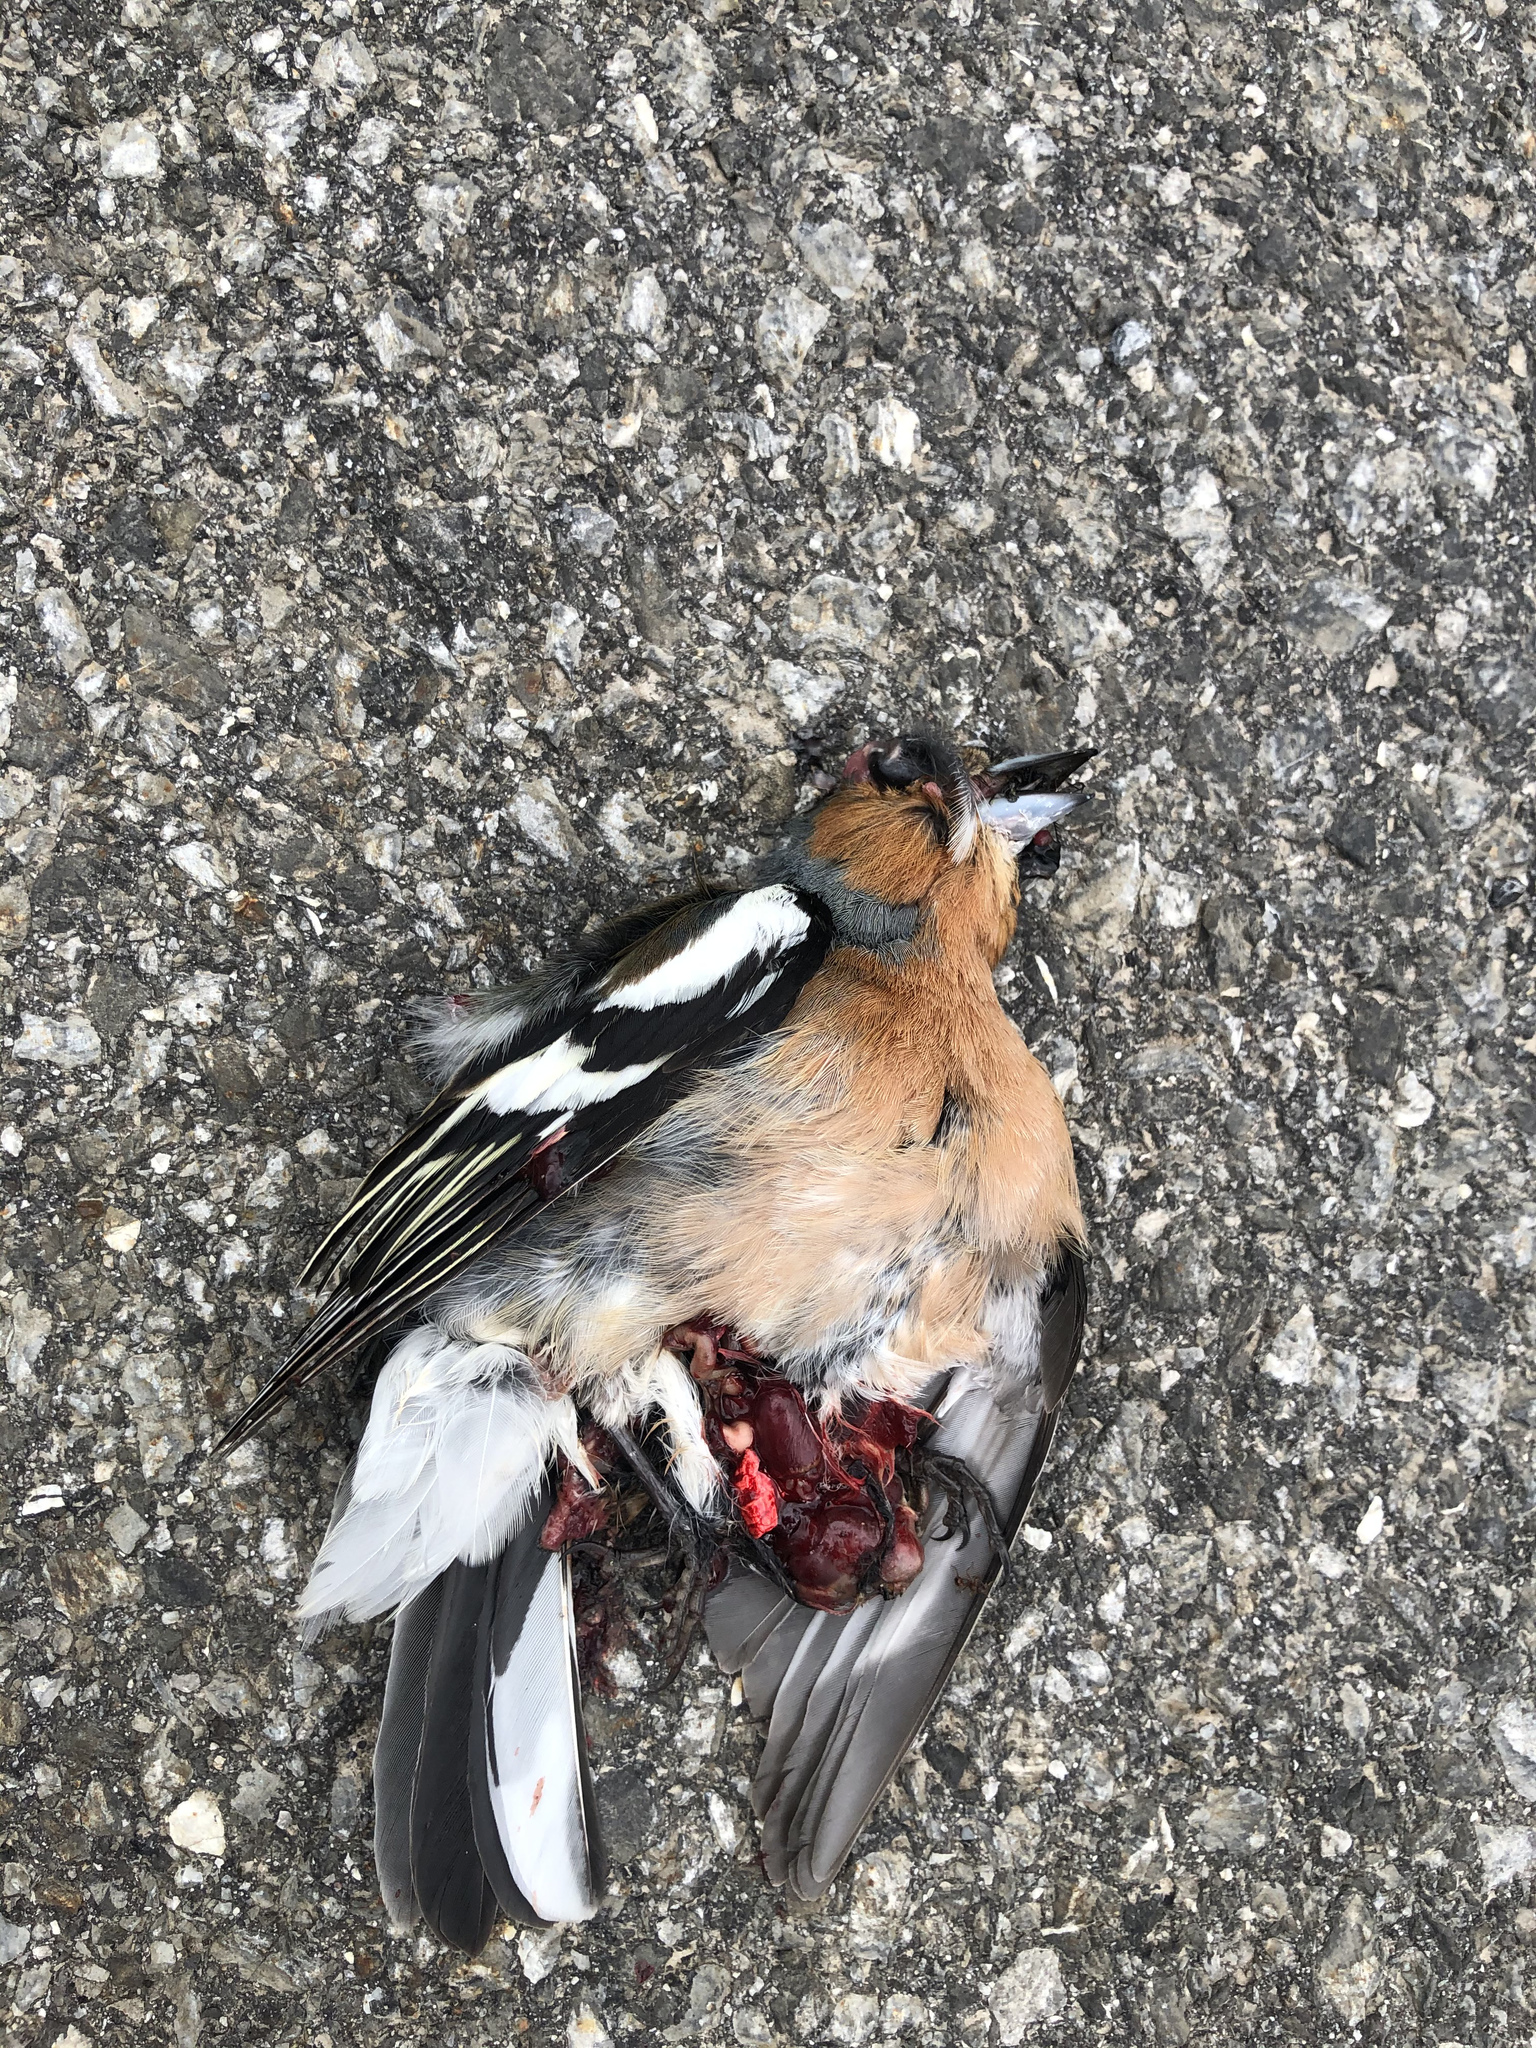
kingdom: Animalia
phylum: Chordata
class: Aves
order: Passeriformes
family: Fringillidae
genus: Fringilla
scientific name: Fringilla coelebs
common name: Common chaffinch
